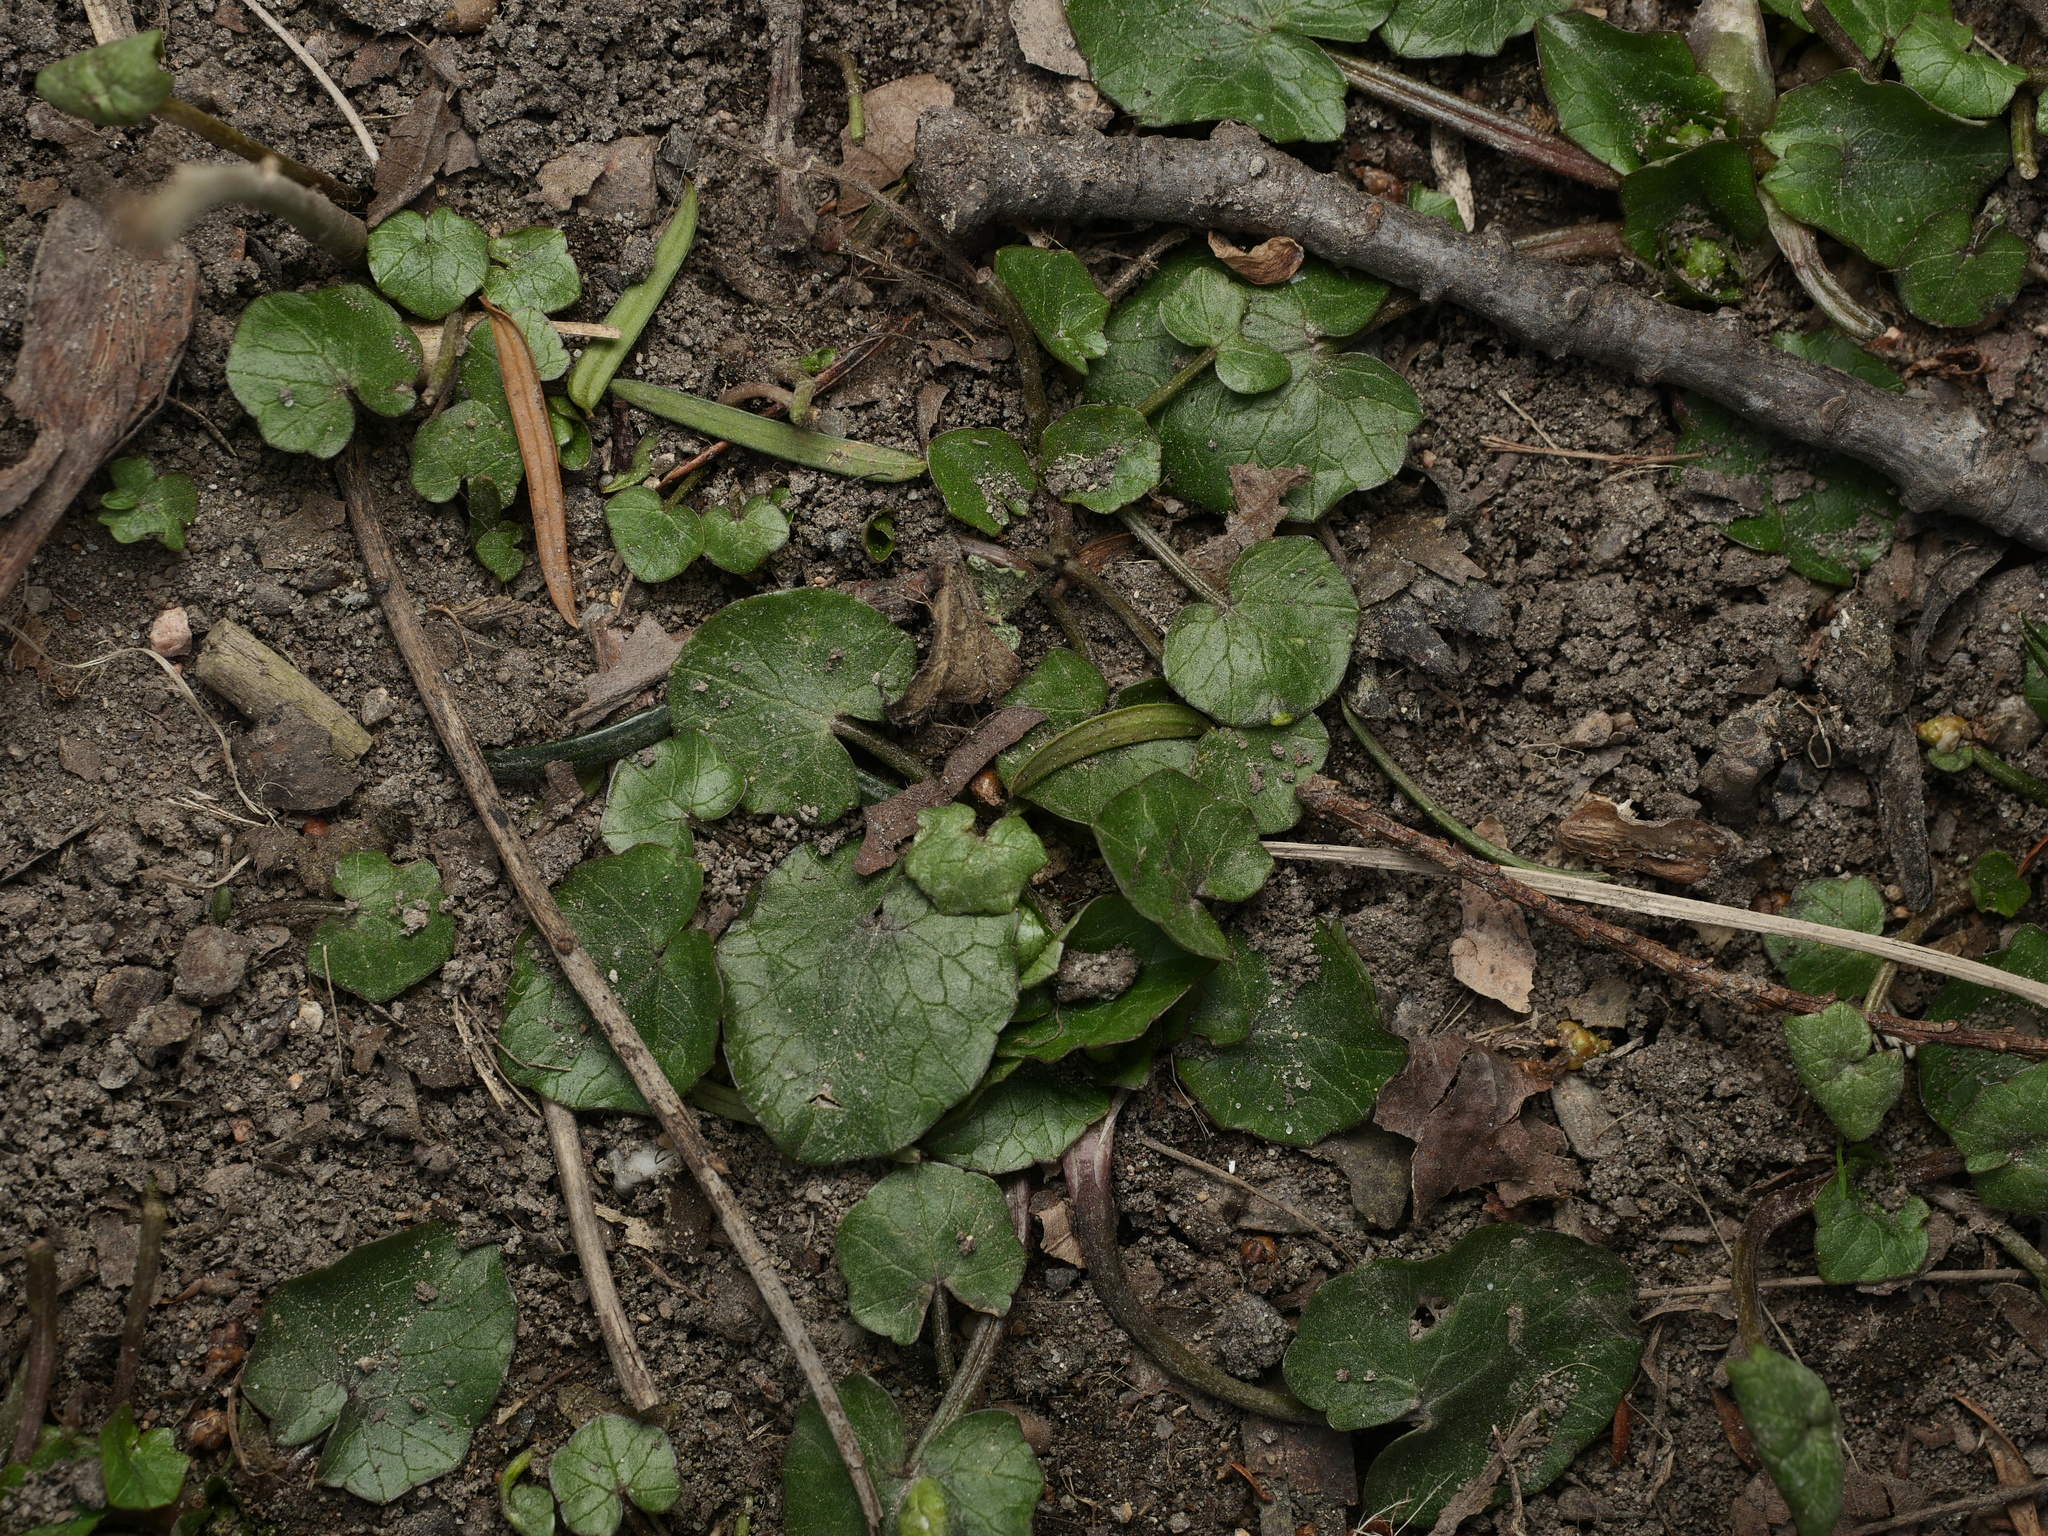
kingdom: Plantae
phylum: Tracheophyta
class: Magnoliopsida
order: Ranunculales
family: Ranunculaceae
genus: Ficaria
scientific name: Ficaria verna
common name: Lesser celandine
